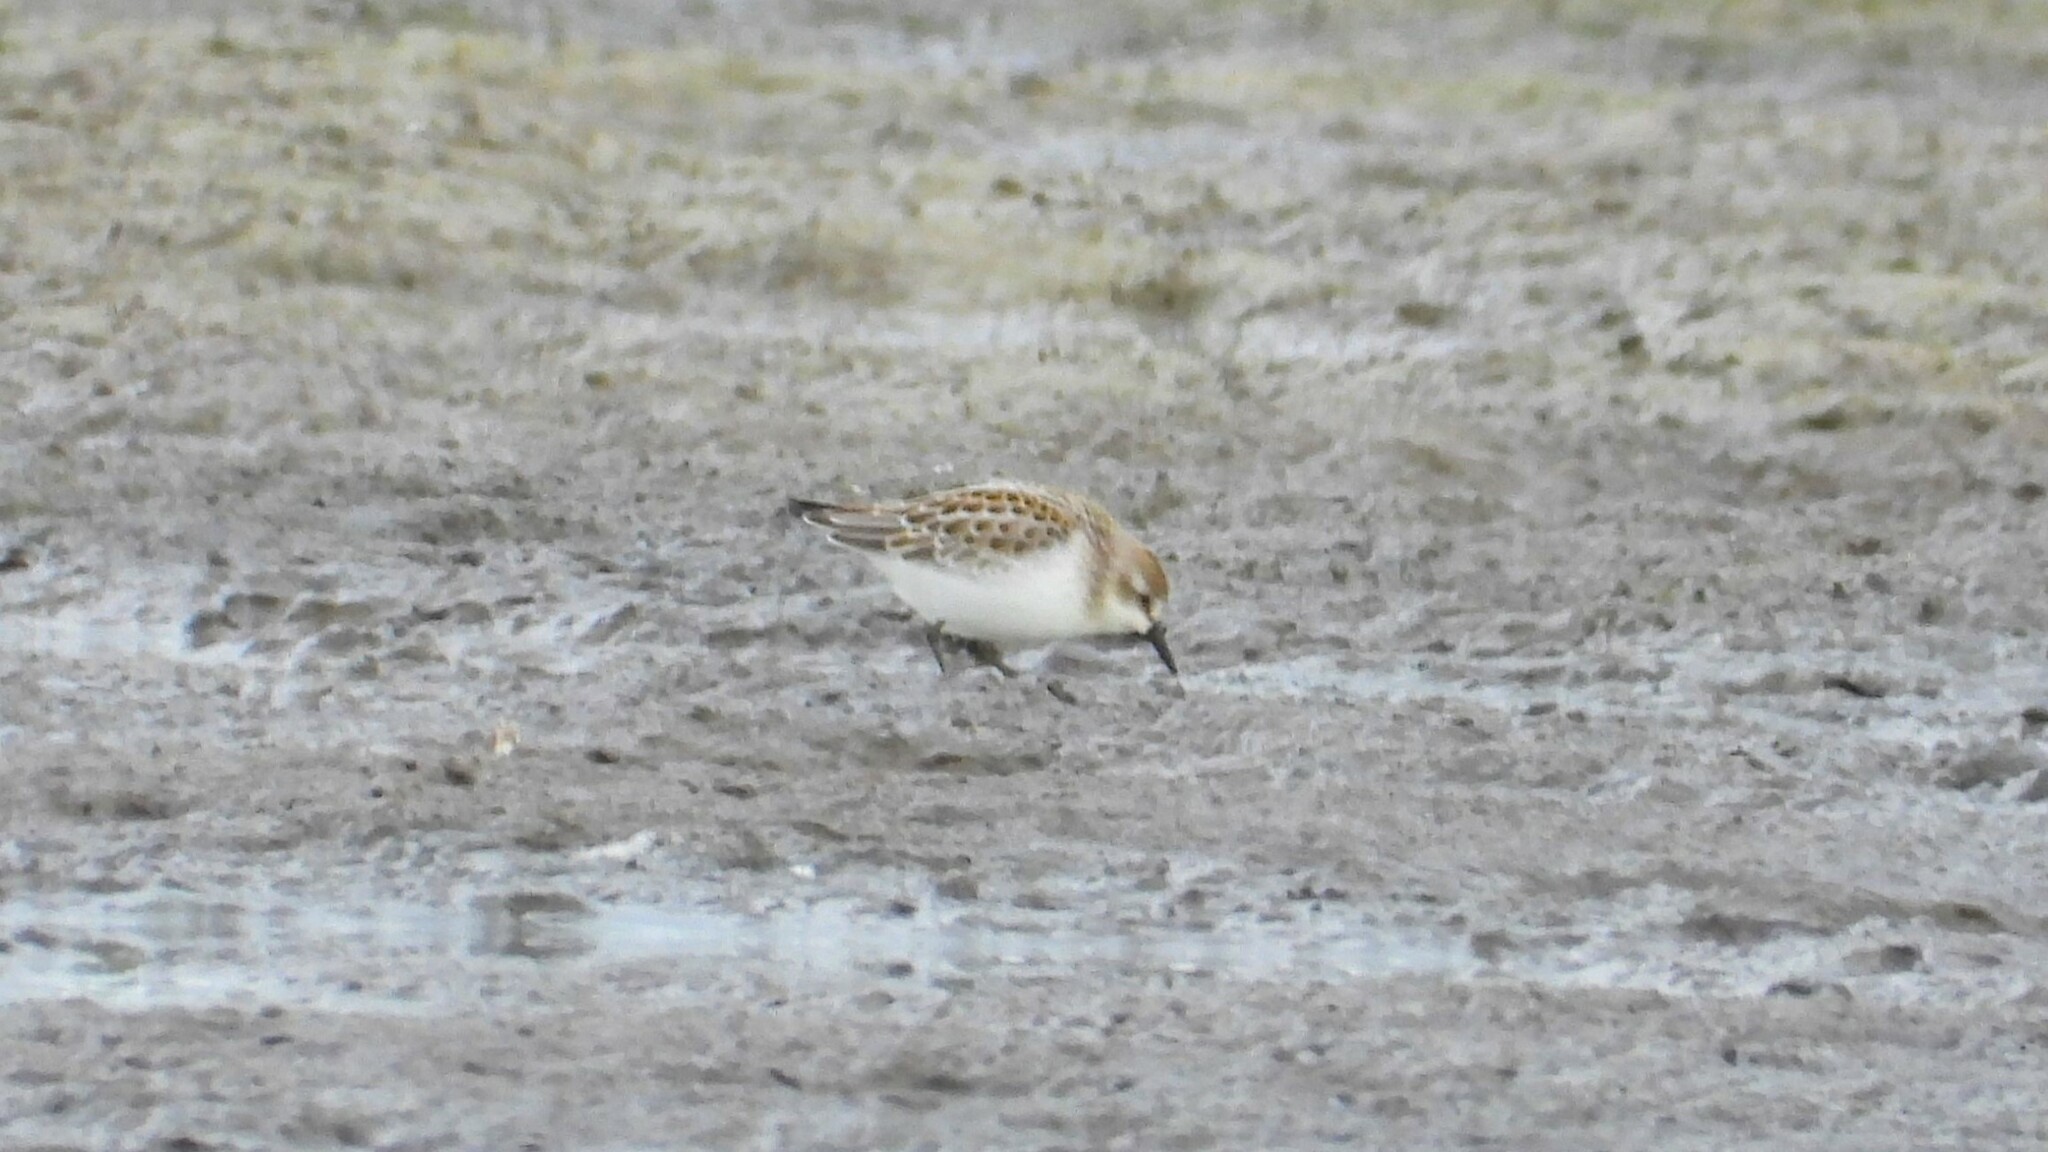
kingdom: Animalia
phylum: Chordata
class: Aves
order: Charadriiformes
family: Scolopacidae
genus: Calidris
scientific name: Calidris pusilla
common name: Semipalmated sandpiper
